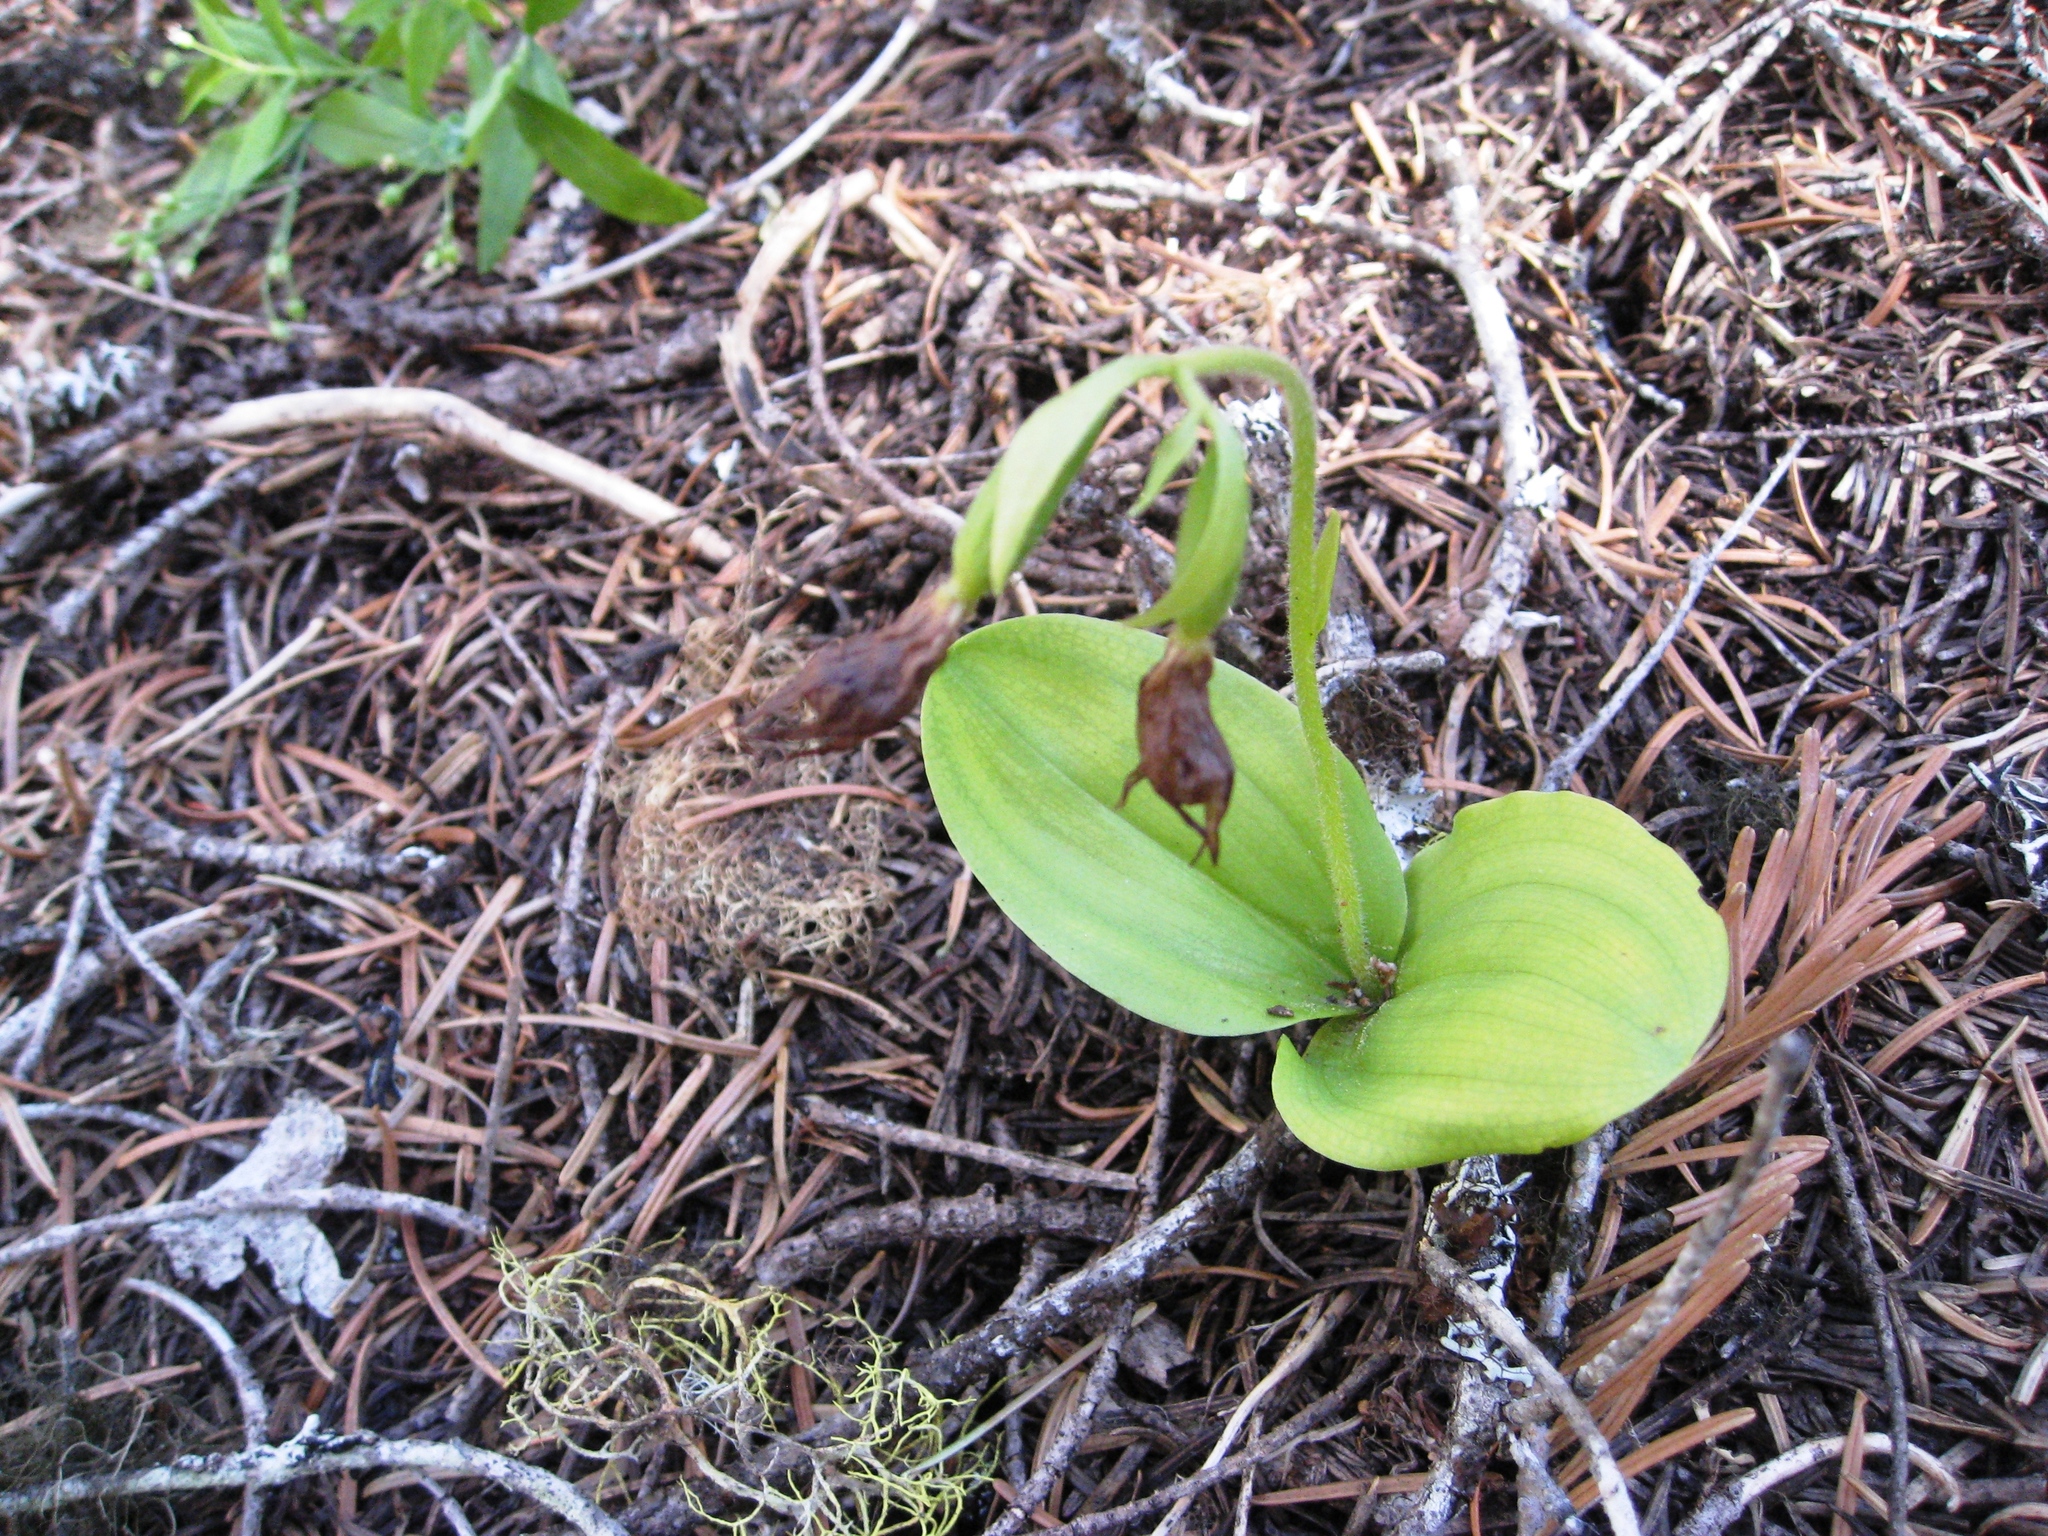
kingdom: Plantae
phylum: Tracheophyta
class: Liliopsida
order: Asparagales
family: Orchidaceae
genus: Cypripedium
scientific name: Cypripedium fasciculatum
